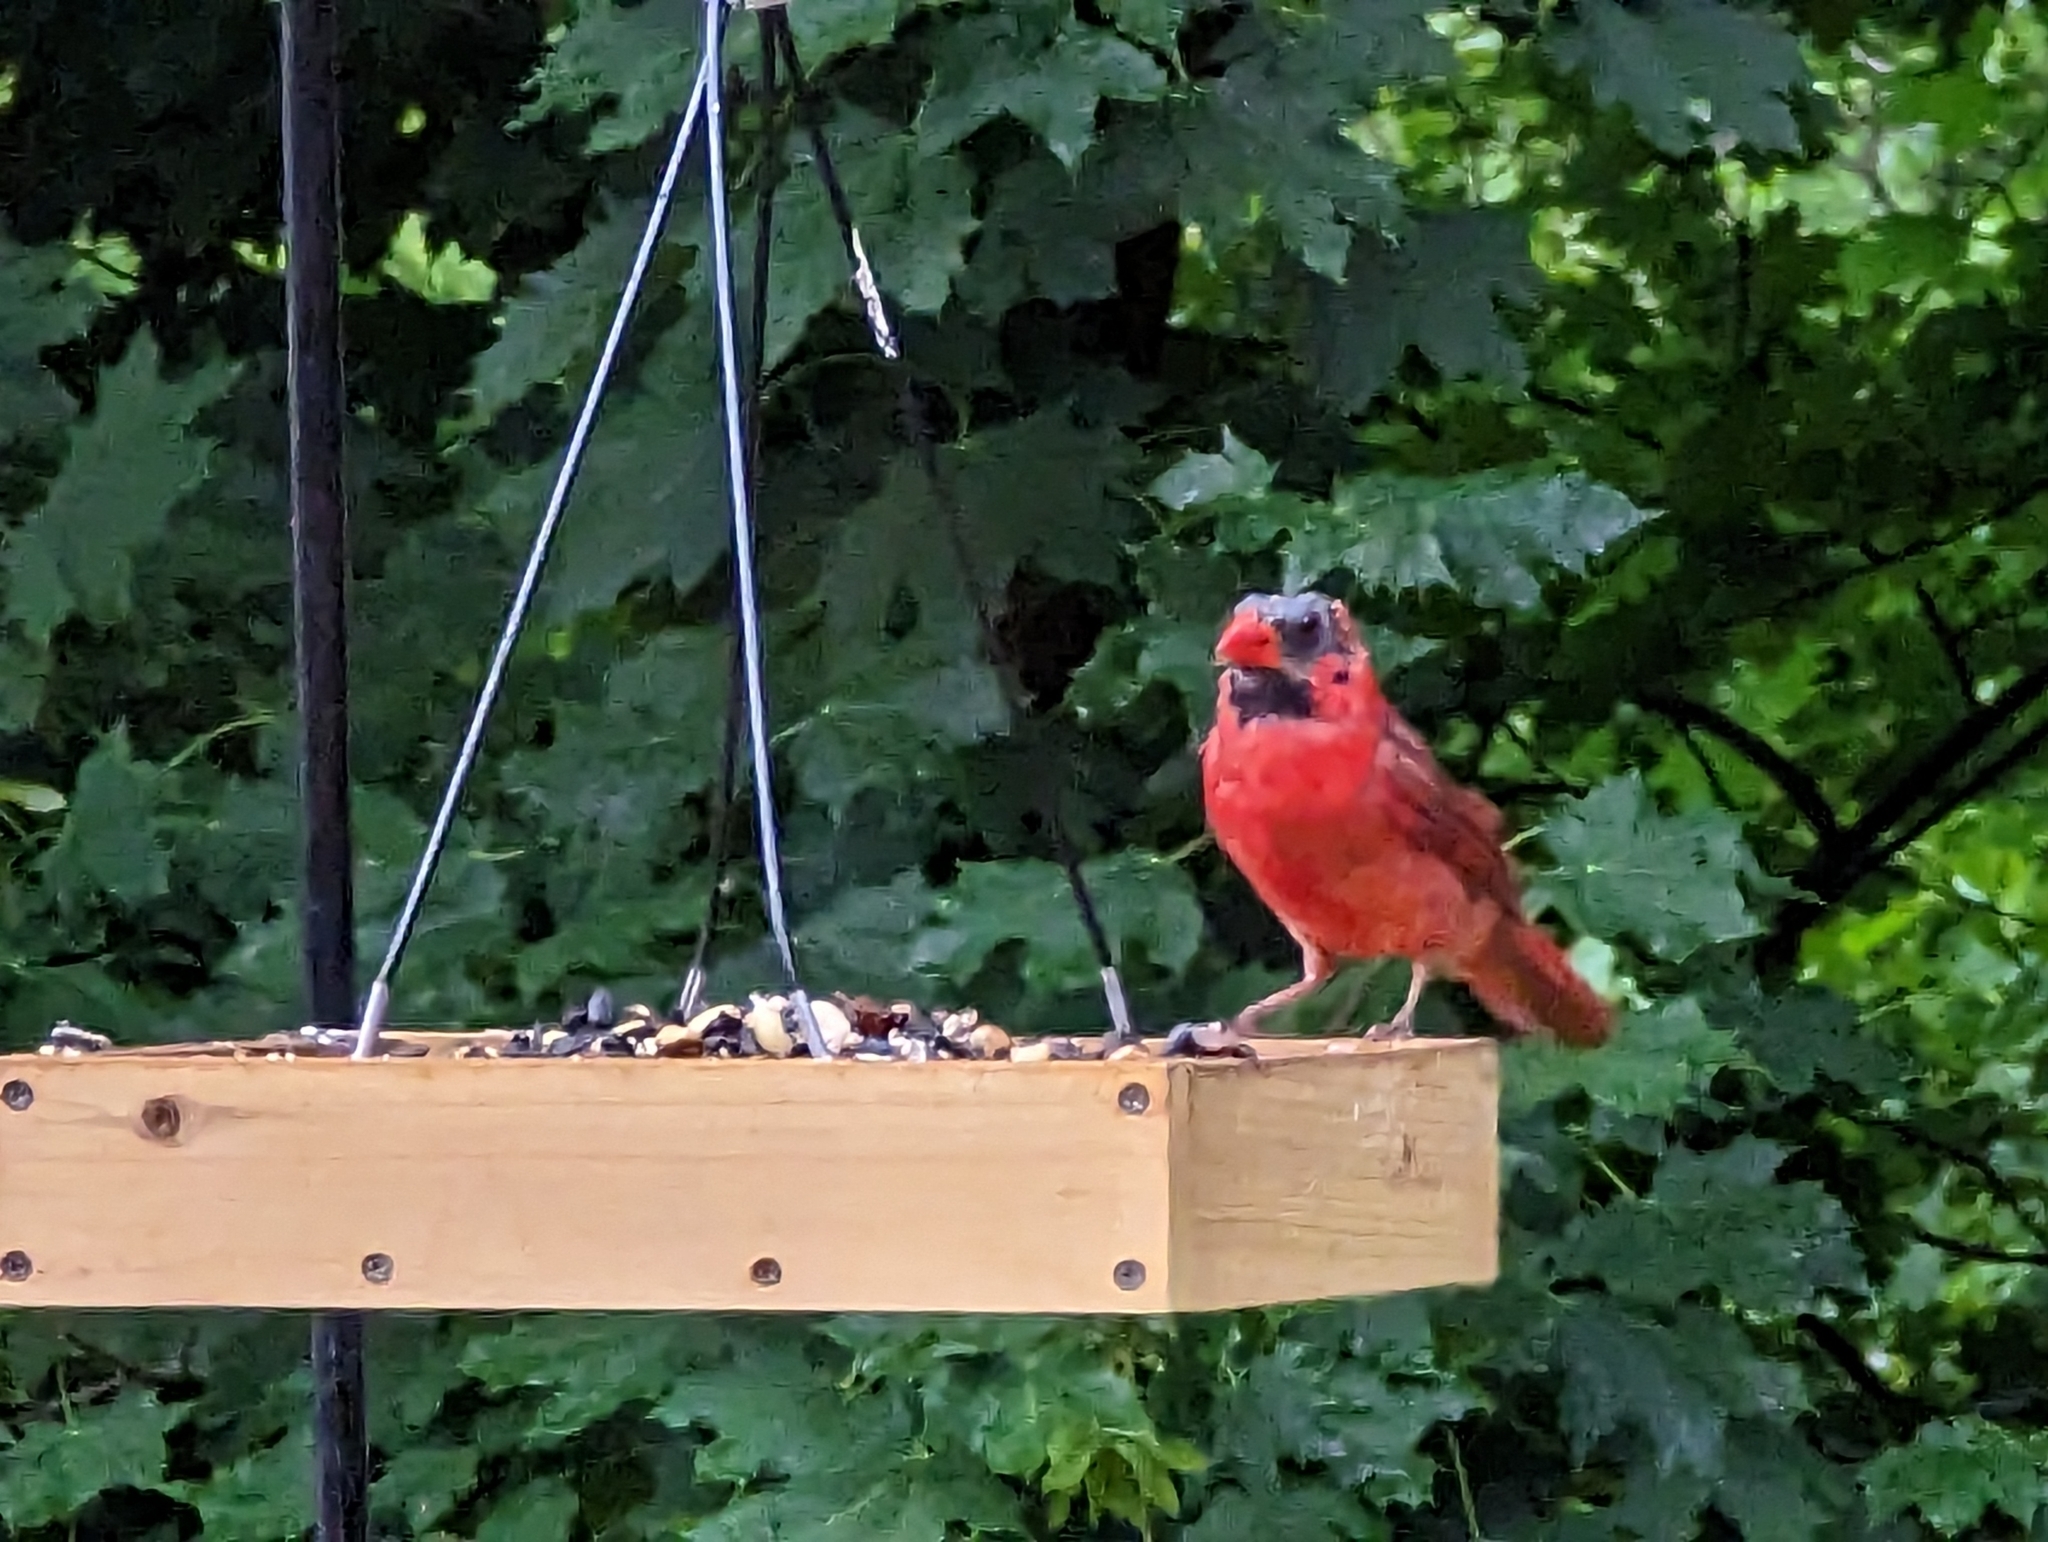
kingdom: Animalia
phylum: Chordata
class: Aves
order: Passeriformes
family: Cardinalidae
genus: Cardinalis
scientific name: Cardinalis cardinalis
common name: Northern cardinal
